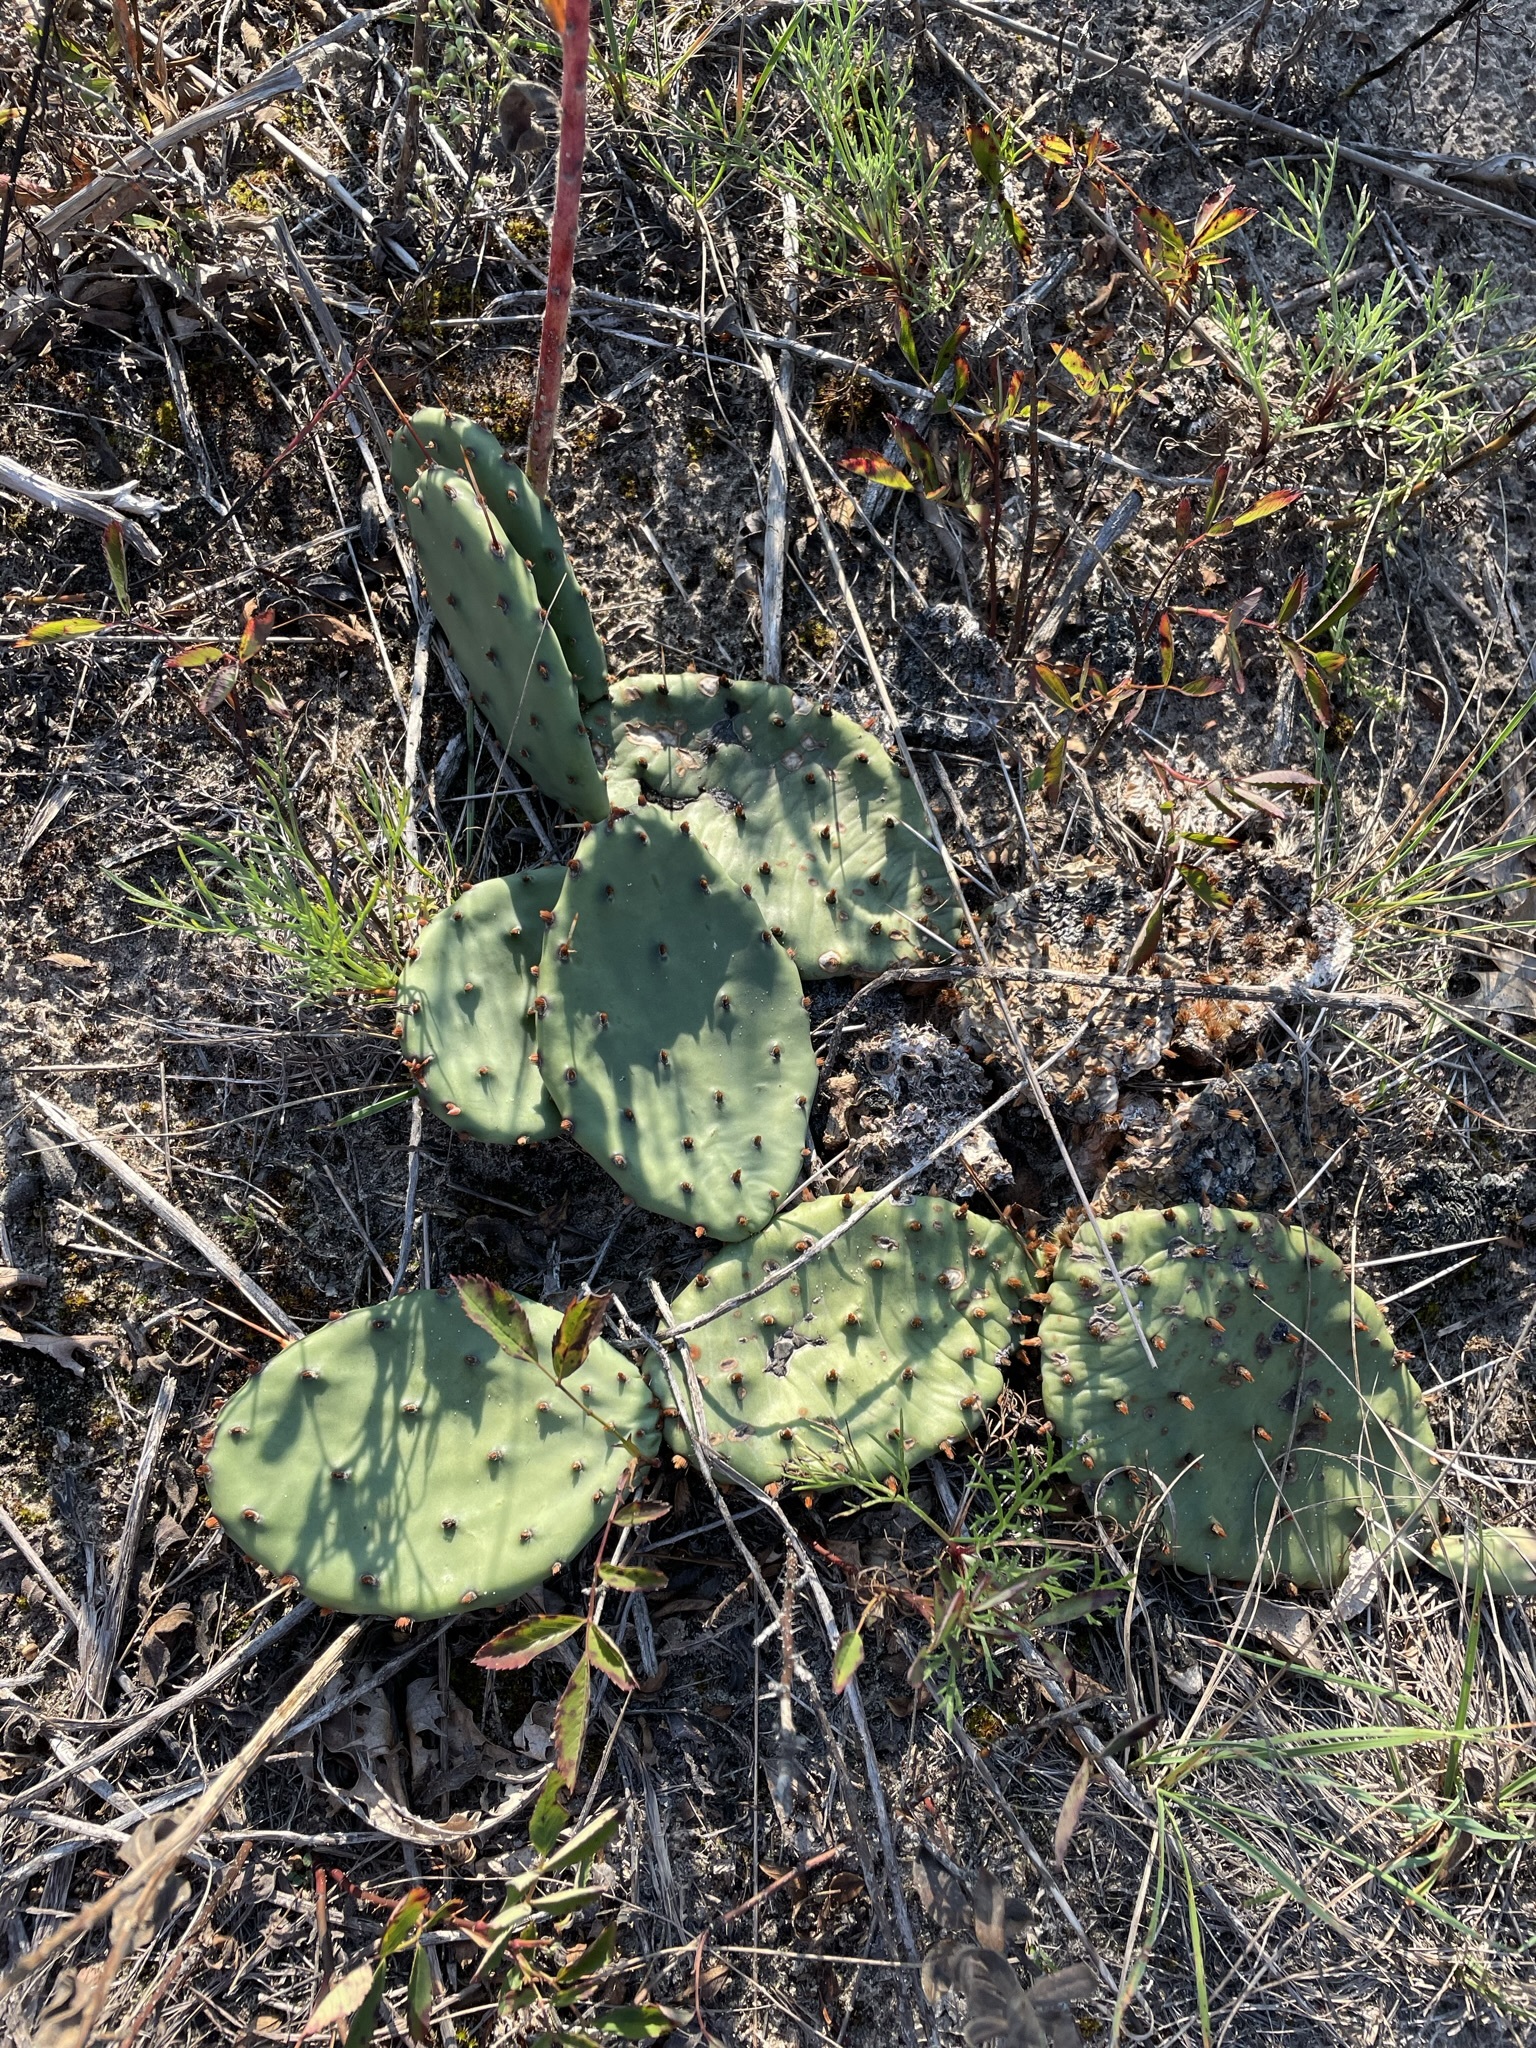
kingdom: Plantae
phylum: Tracheophyta
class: Magnoliopsida
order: Caryophyllales
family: Cactaceae
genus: Opuntia
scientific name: Opuntia humifusa
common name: Eastern prickly-pear
